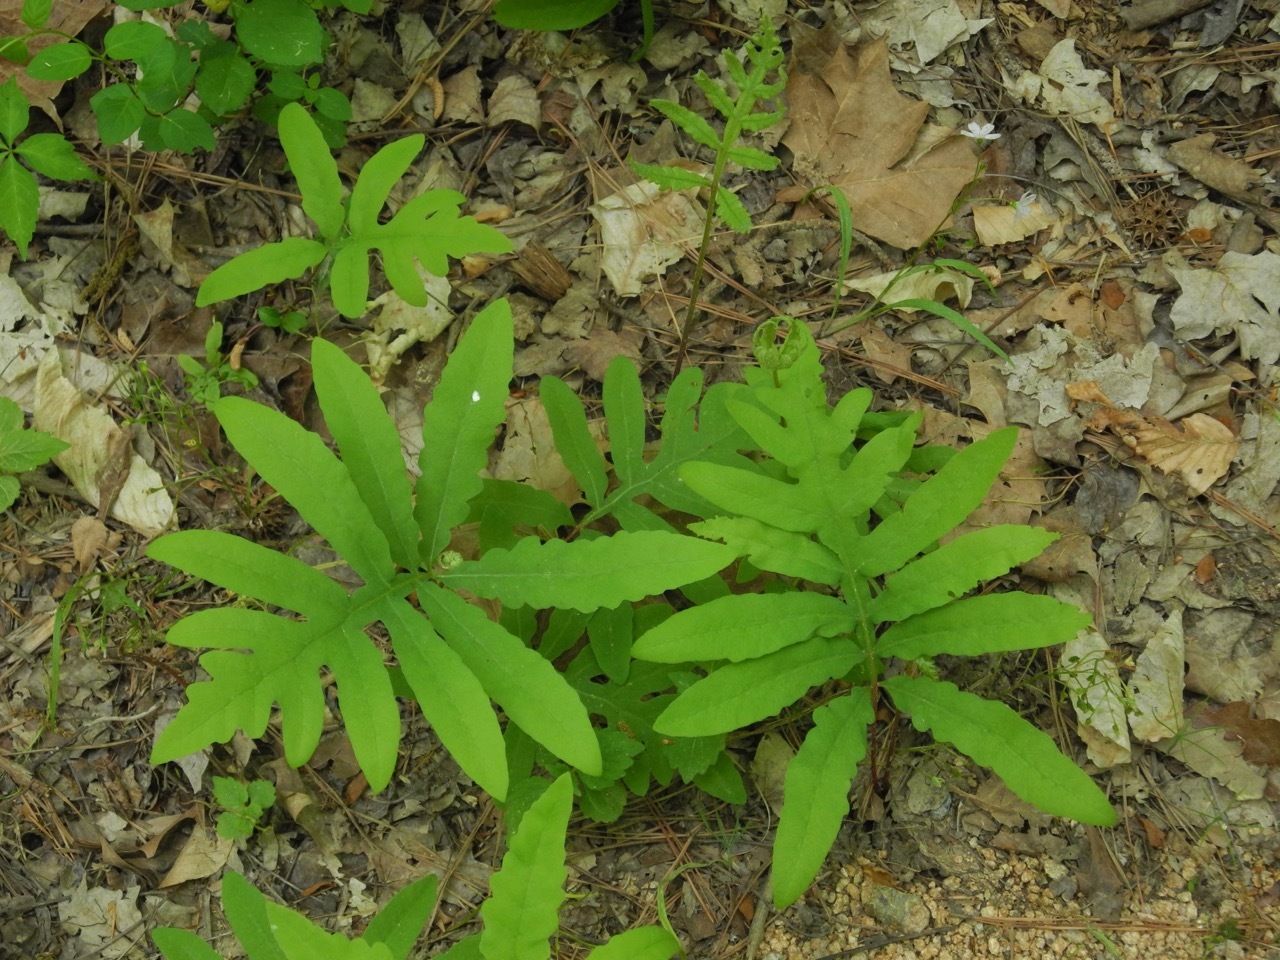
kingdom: Plantae
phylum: Tracheophyta
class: Polypodiopsida
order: Polypodiales
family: Onocleaceae
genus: Onoclea
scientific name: Onoclea sensibilis
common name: Sensitive fern
